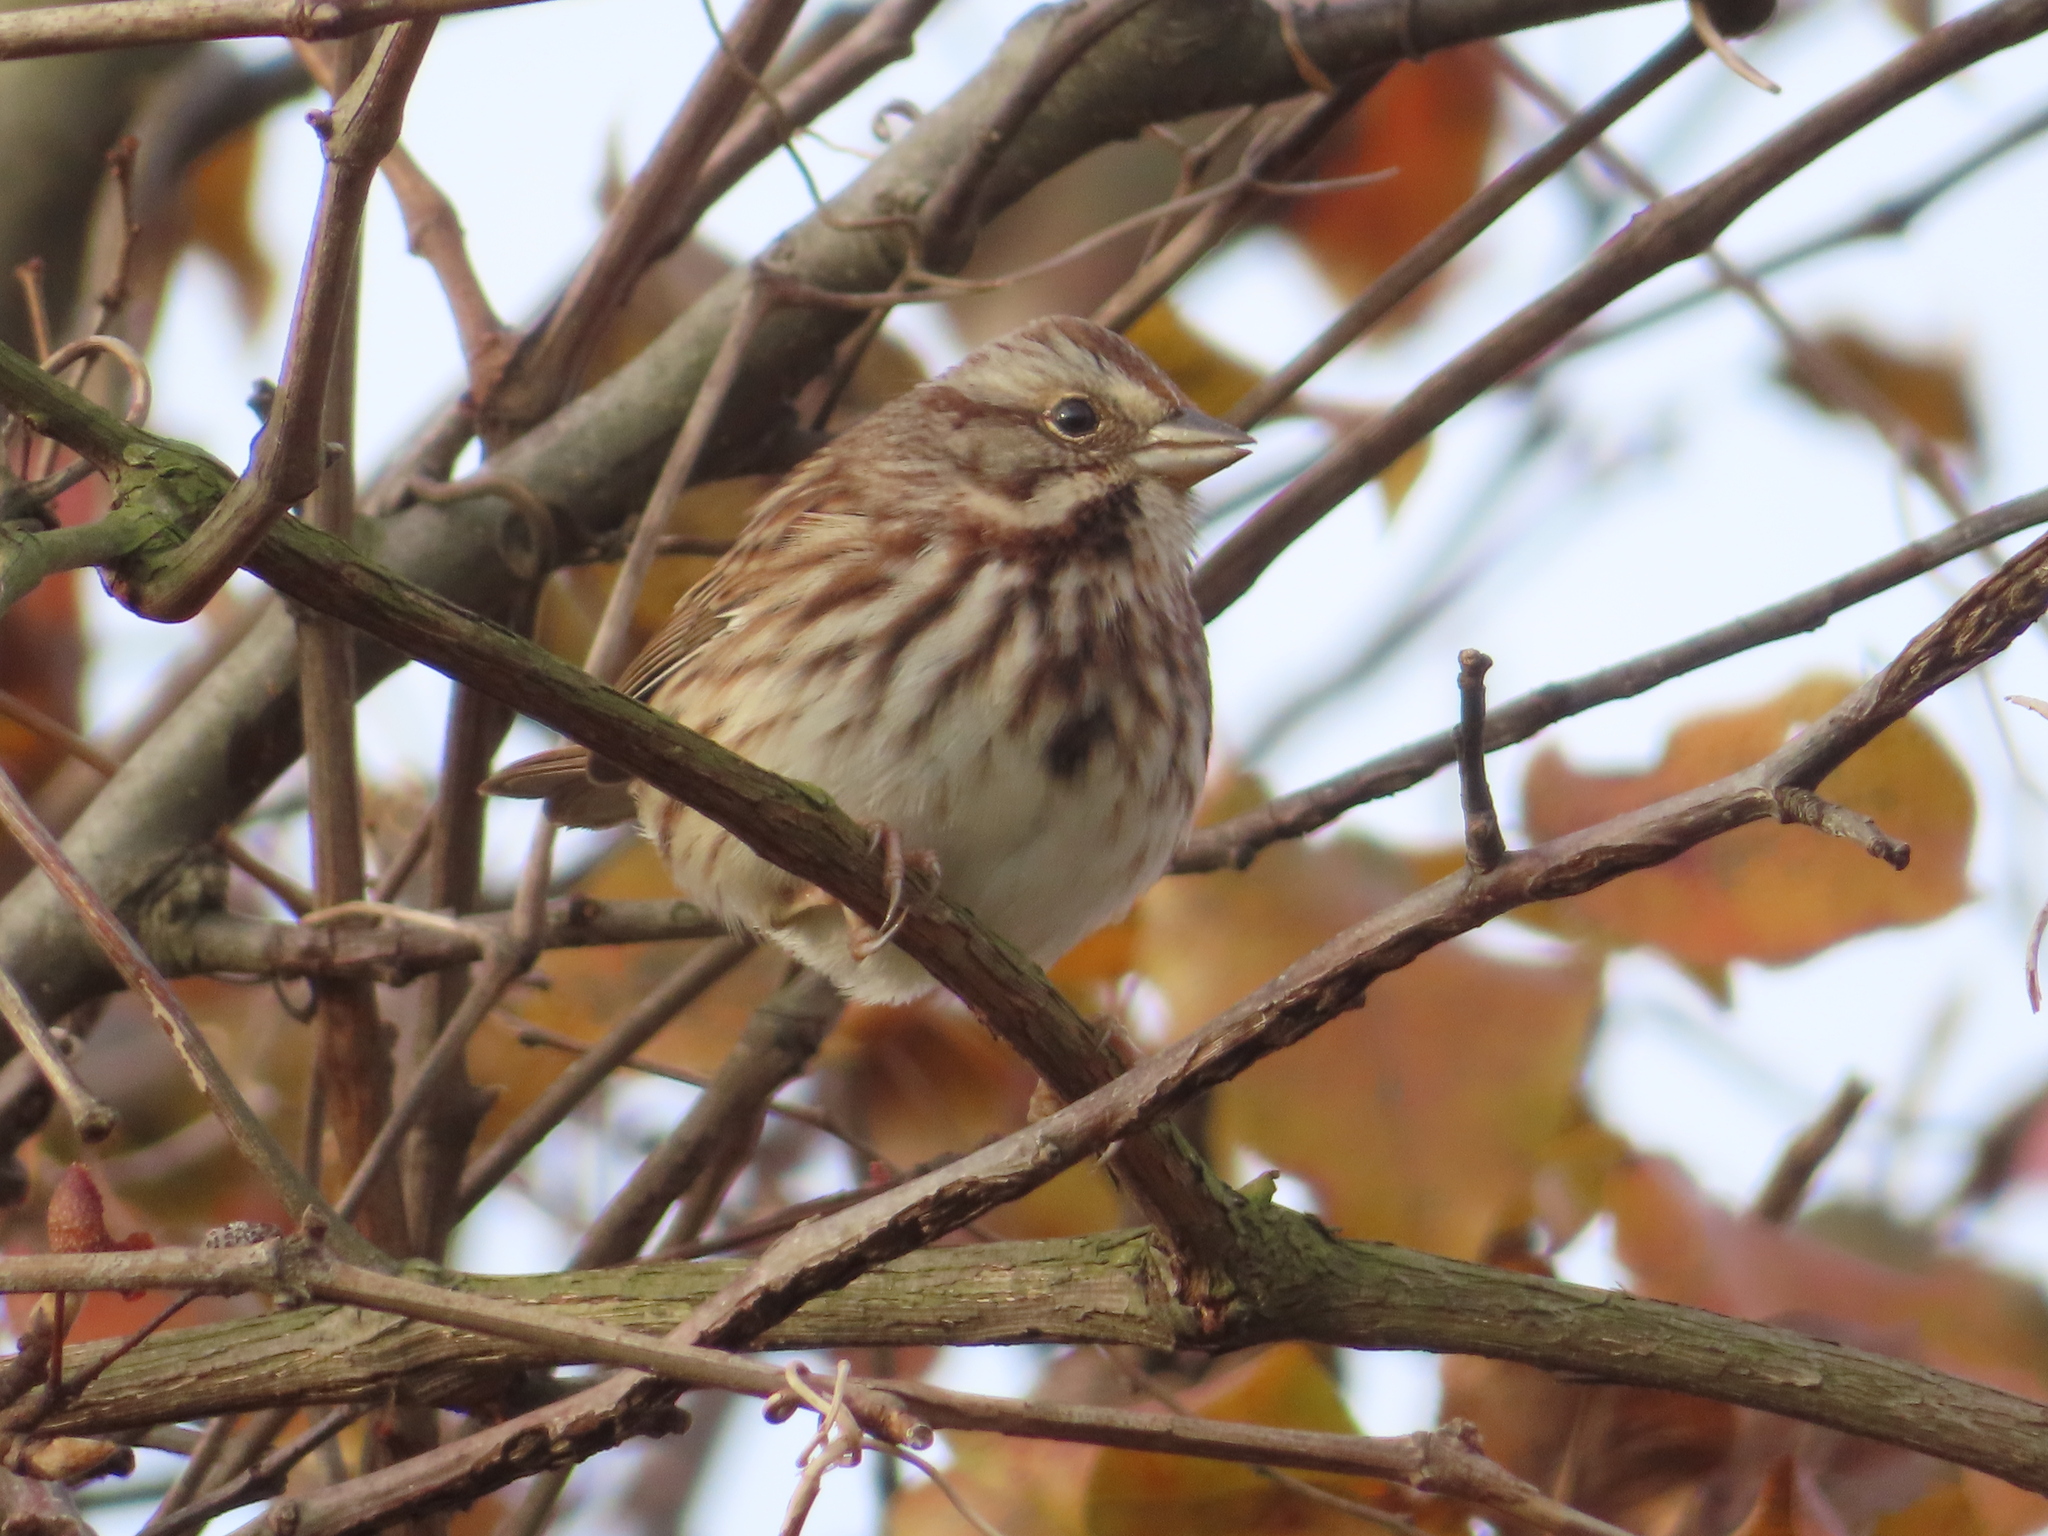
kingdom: Animalia
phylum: Chordata
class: Aves
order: Passeriformes
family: Passerellidae
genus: Melospiza
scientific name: Melospiza melodia
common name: Song sparrow
